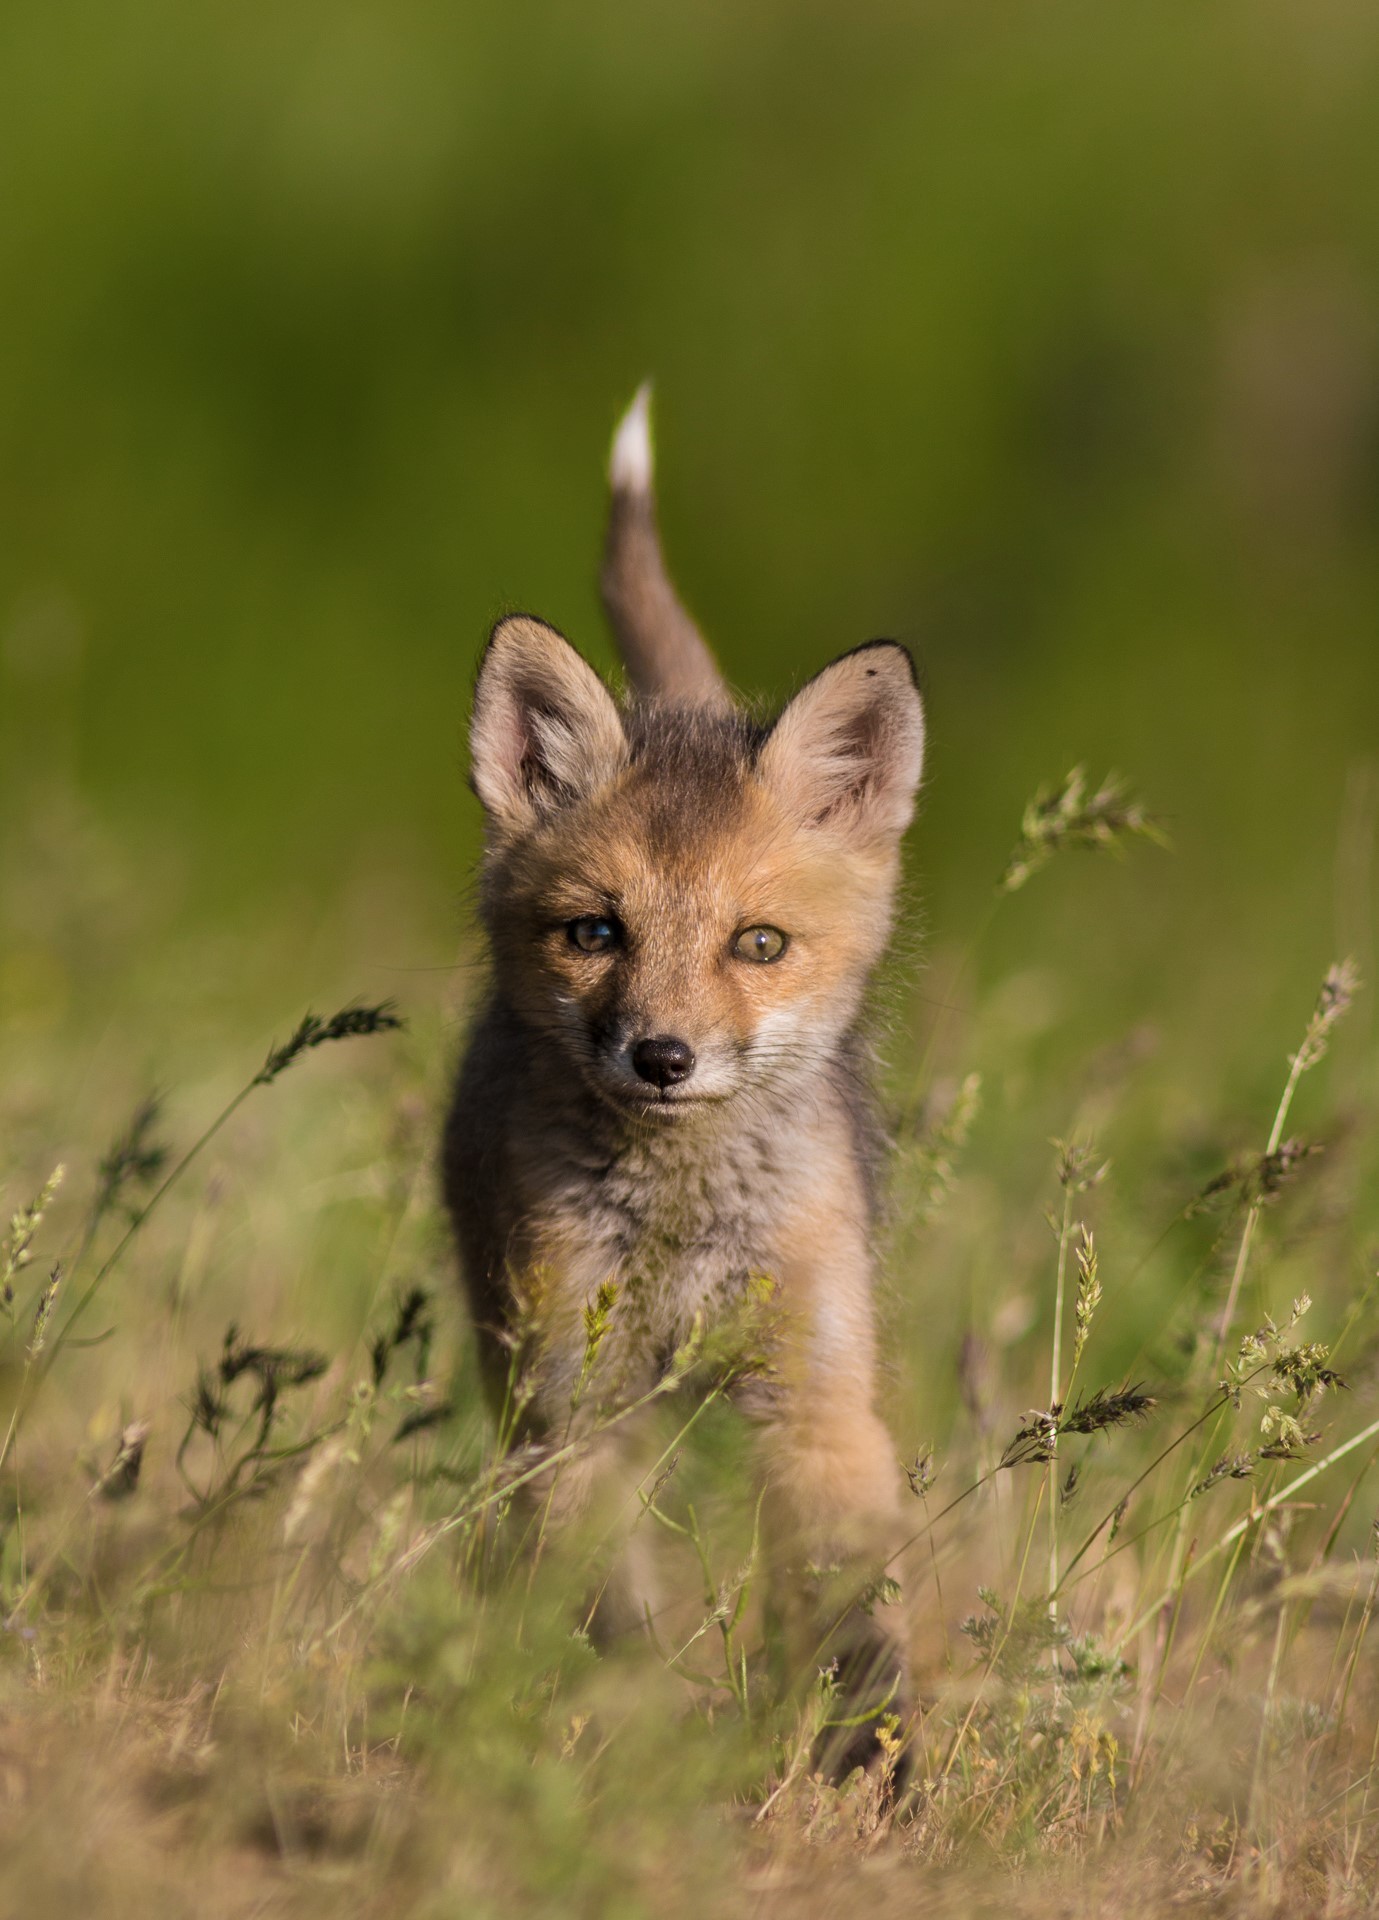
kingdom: Animalia
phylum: Chordata
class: Mammalia
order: Carnivora
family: Canidae
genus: Vulpes
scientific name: Vulpes vulpes
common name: Red fox
